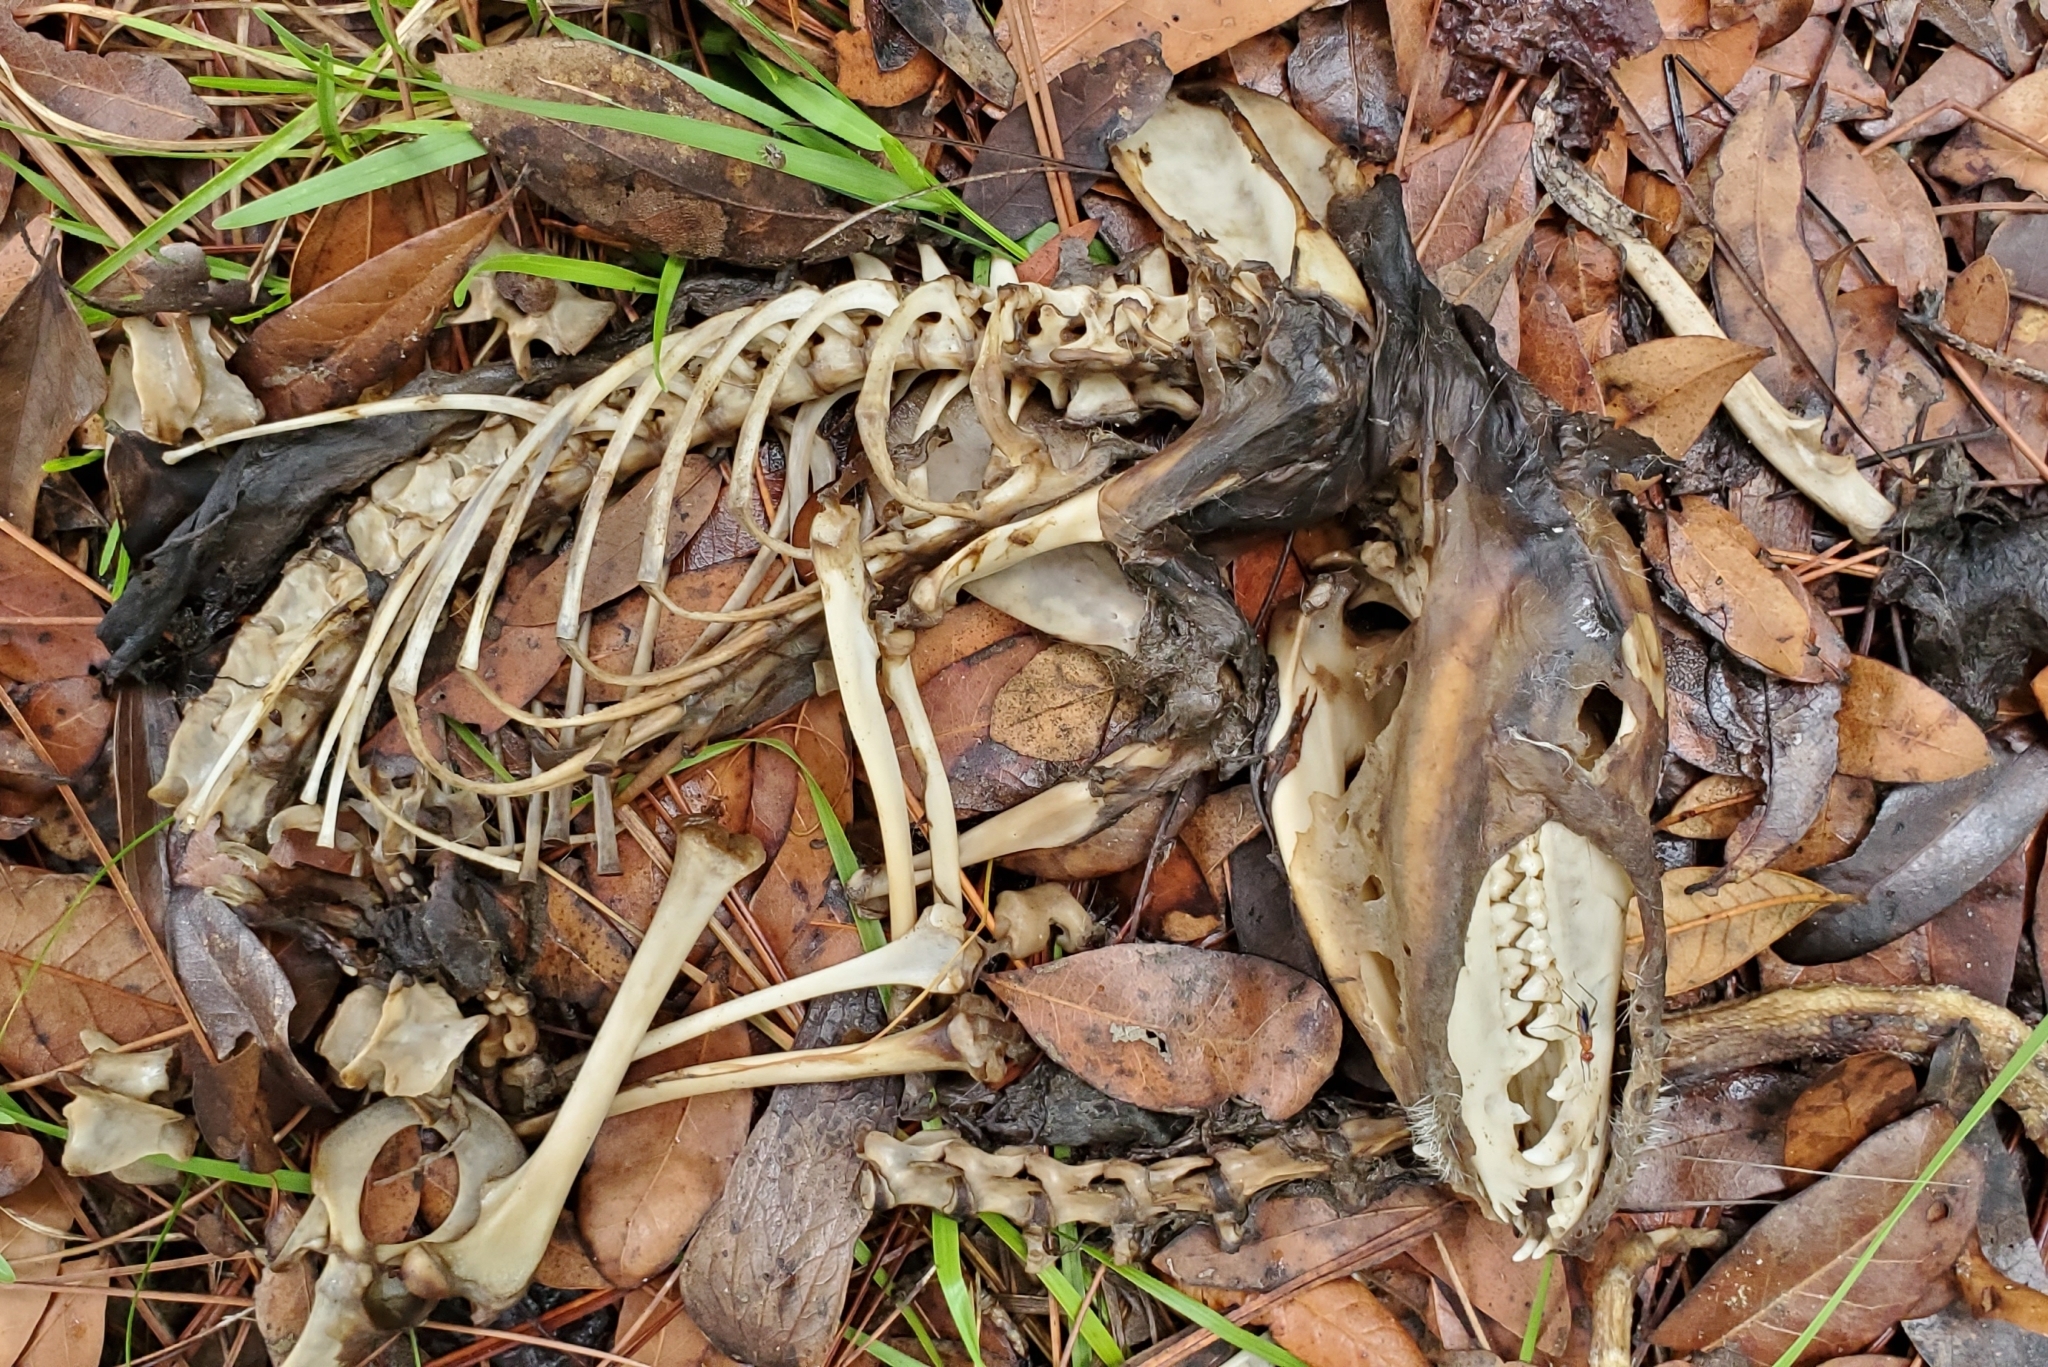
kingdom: Animalia
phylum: Chordata
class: Mammalia
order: Didelphimorphia
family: Didelphidae
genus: Didelphis
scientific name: Didelphis virginiana
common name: Virginia opossum
